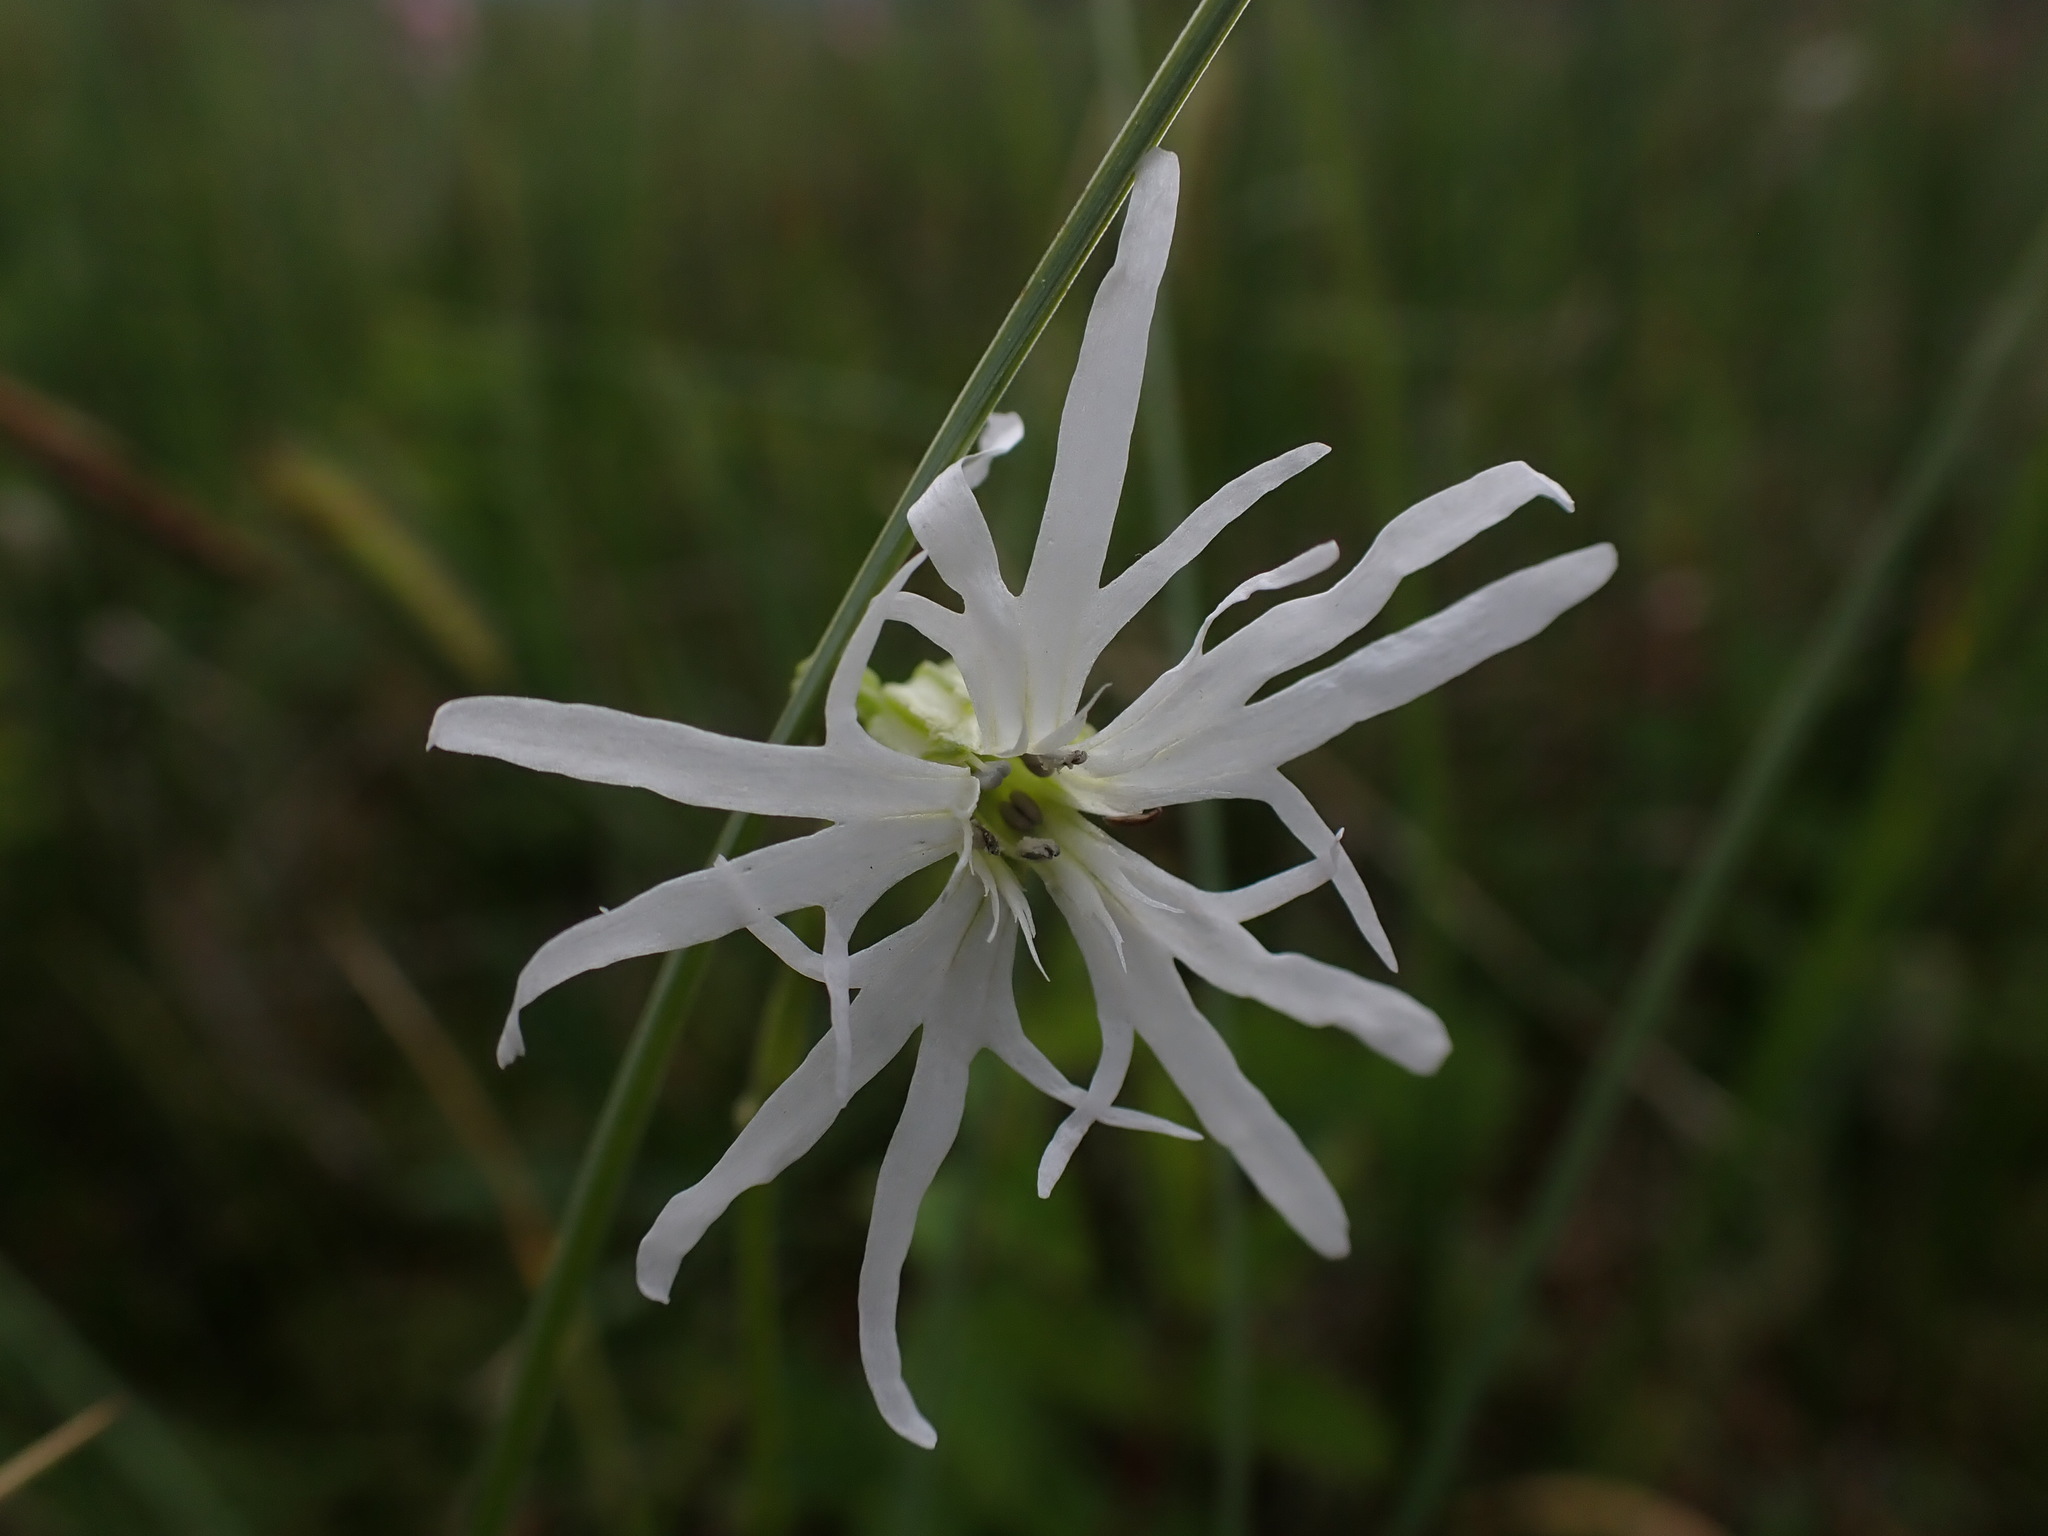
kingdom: Plantae
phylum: Tracheophyta
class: Magnoliopsida
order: Caryophyllales
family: Caryophyllaceae
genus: Silene
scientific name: Silene flos-cuculi
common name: Ragged-robin
